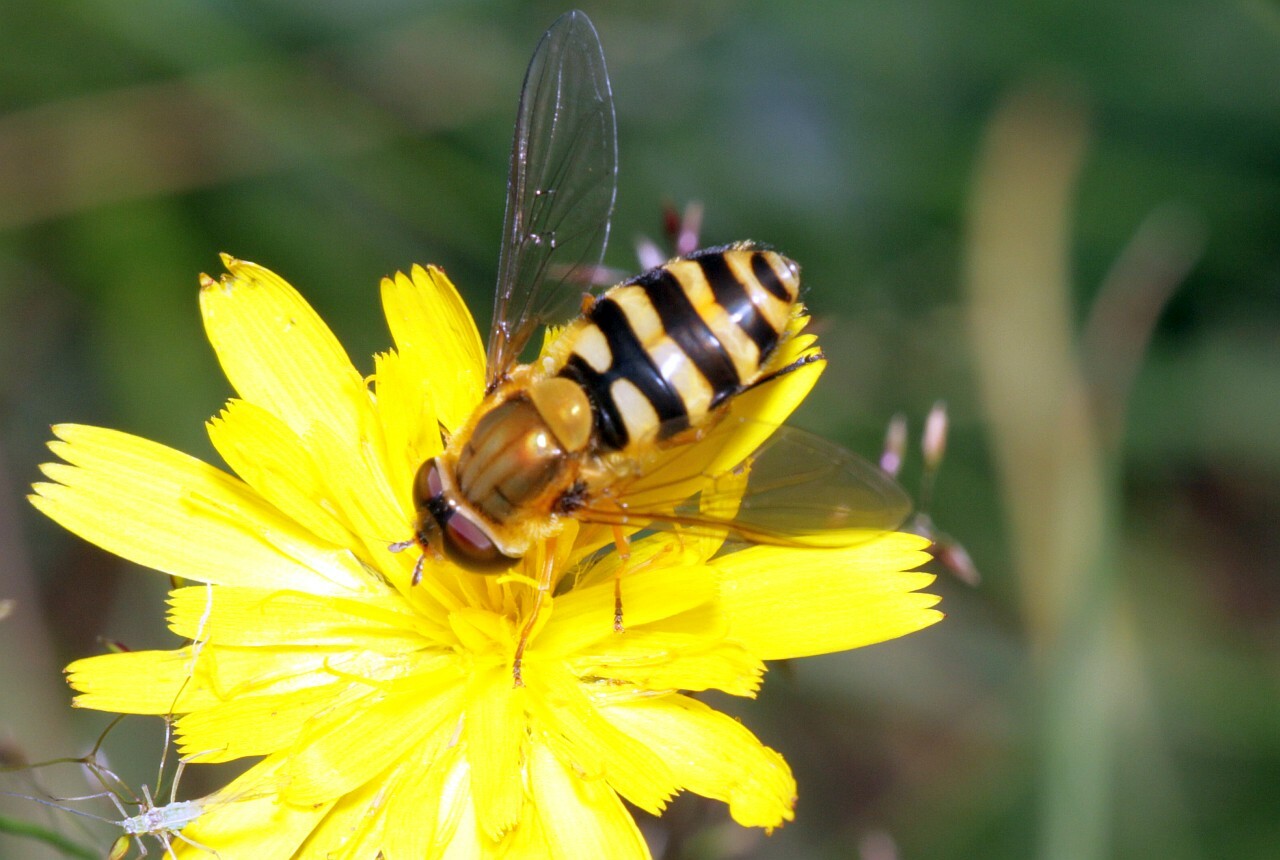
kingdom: Animalia
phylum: Arthropoda
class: Insecta
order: Diptera
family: Syrphidae
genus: Syrphus
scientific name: Syrphus
